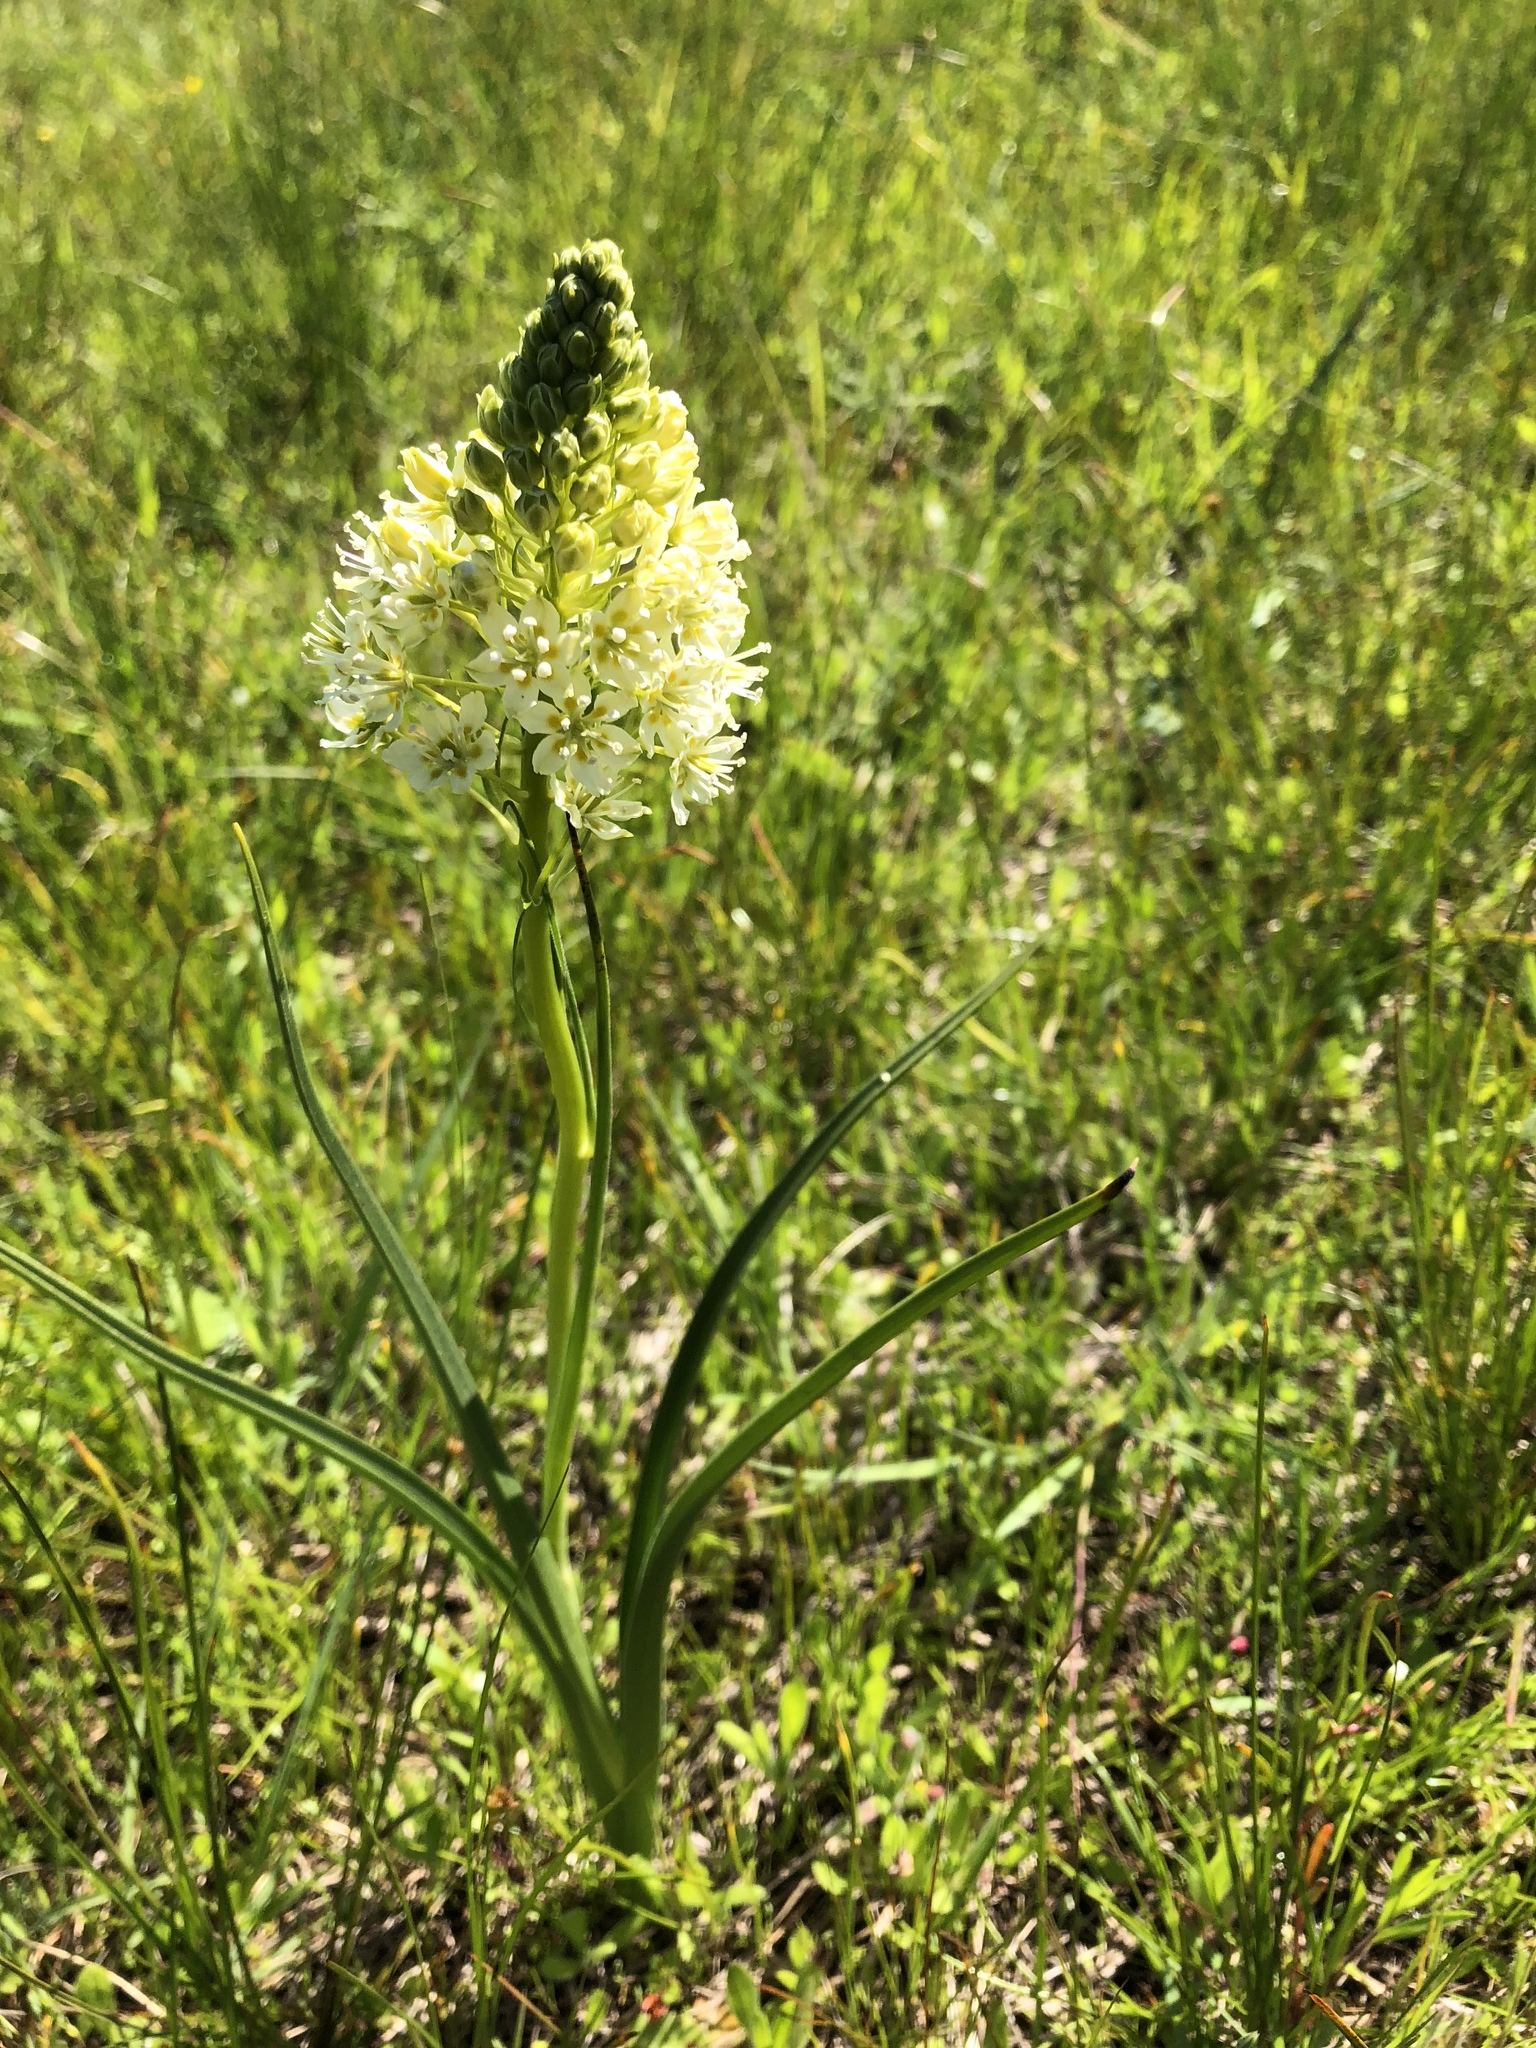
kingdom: Plantae
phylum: Tracheophyta
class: Liliopsida
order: Liliales
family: Melanthiaceae
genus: Toxicoscordion
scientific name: Toxicoscordion venenosum
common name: Meadow death camas
